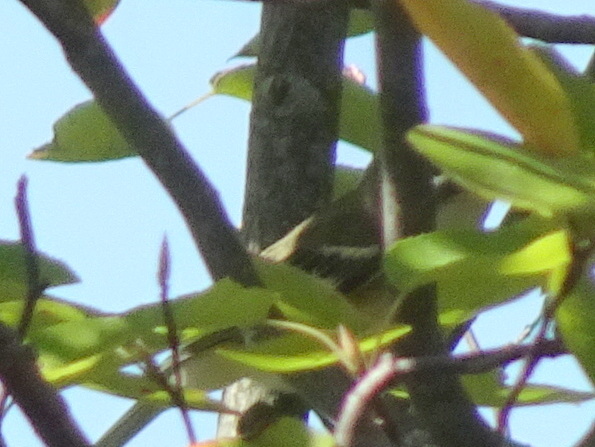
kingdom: Animalia
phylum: Chordata
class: Aves
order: Passeriformes
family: Vireonidae
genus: Vireo
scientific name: Vireo solitarius
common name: Blue-headed vireo
